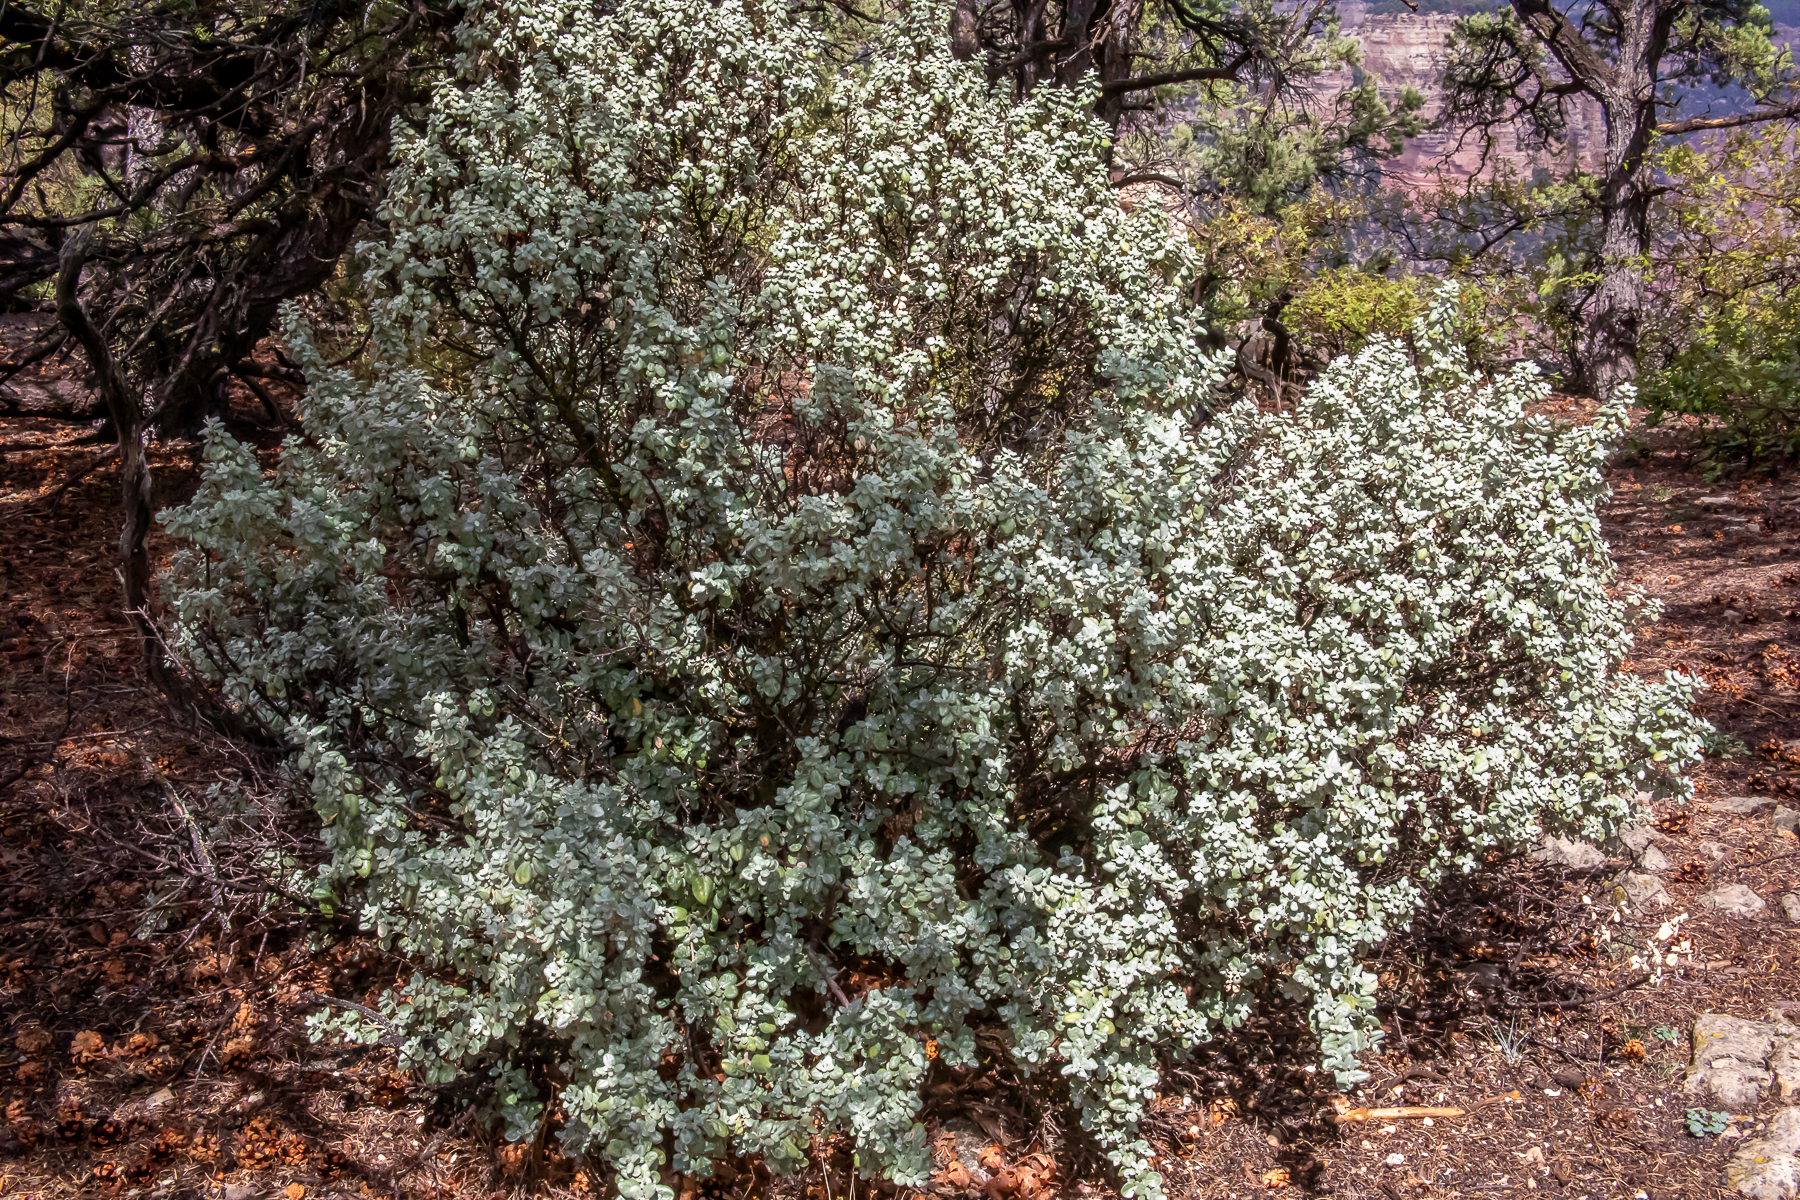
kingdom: Plantae
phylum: Tracheophyta
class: Magnoliopsida
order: Rosales
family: Elaeagnaceae
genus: Shepherdia
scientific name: Shepherdia rotundifolia
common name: Silverscale
